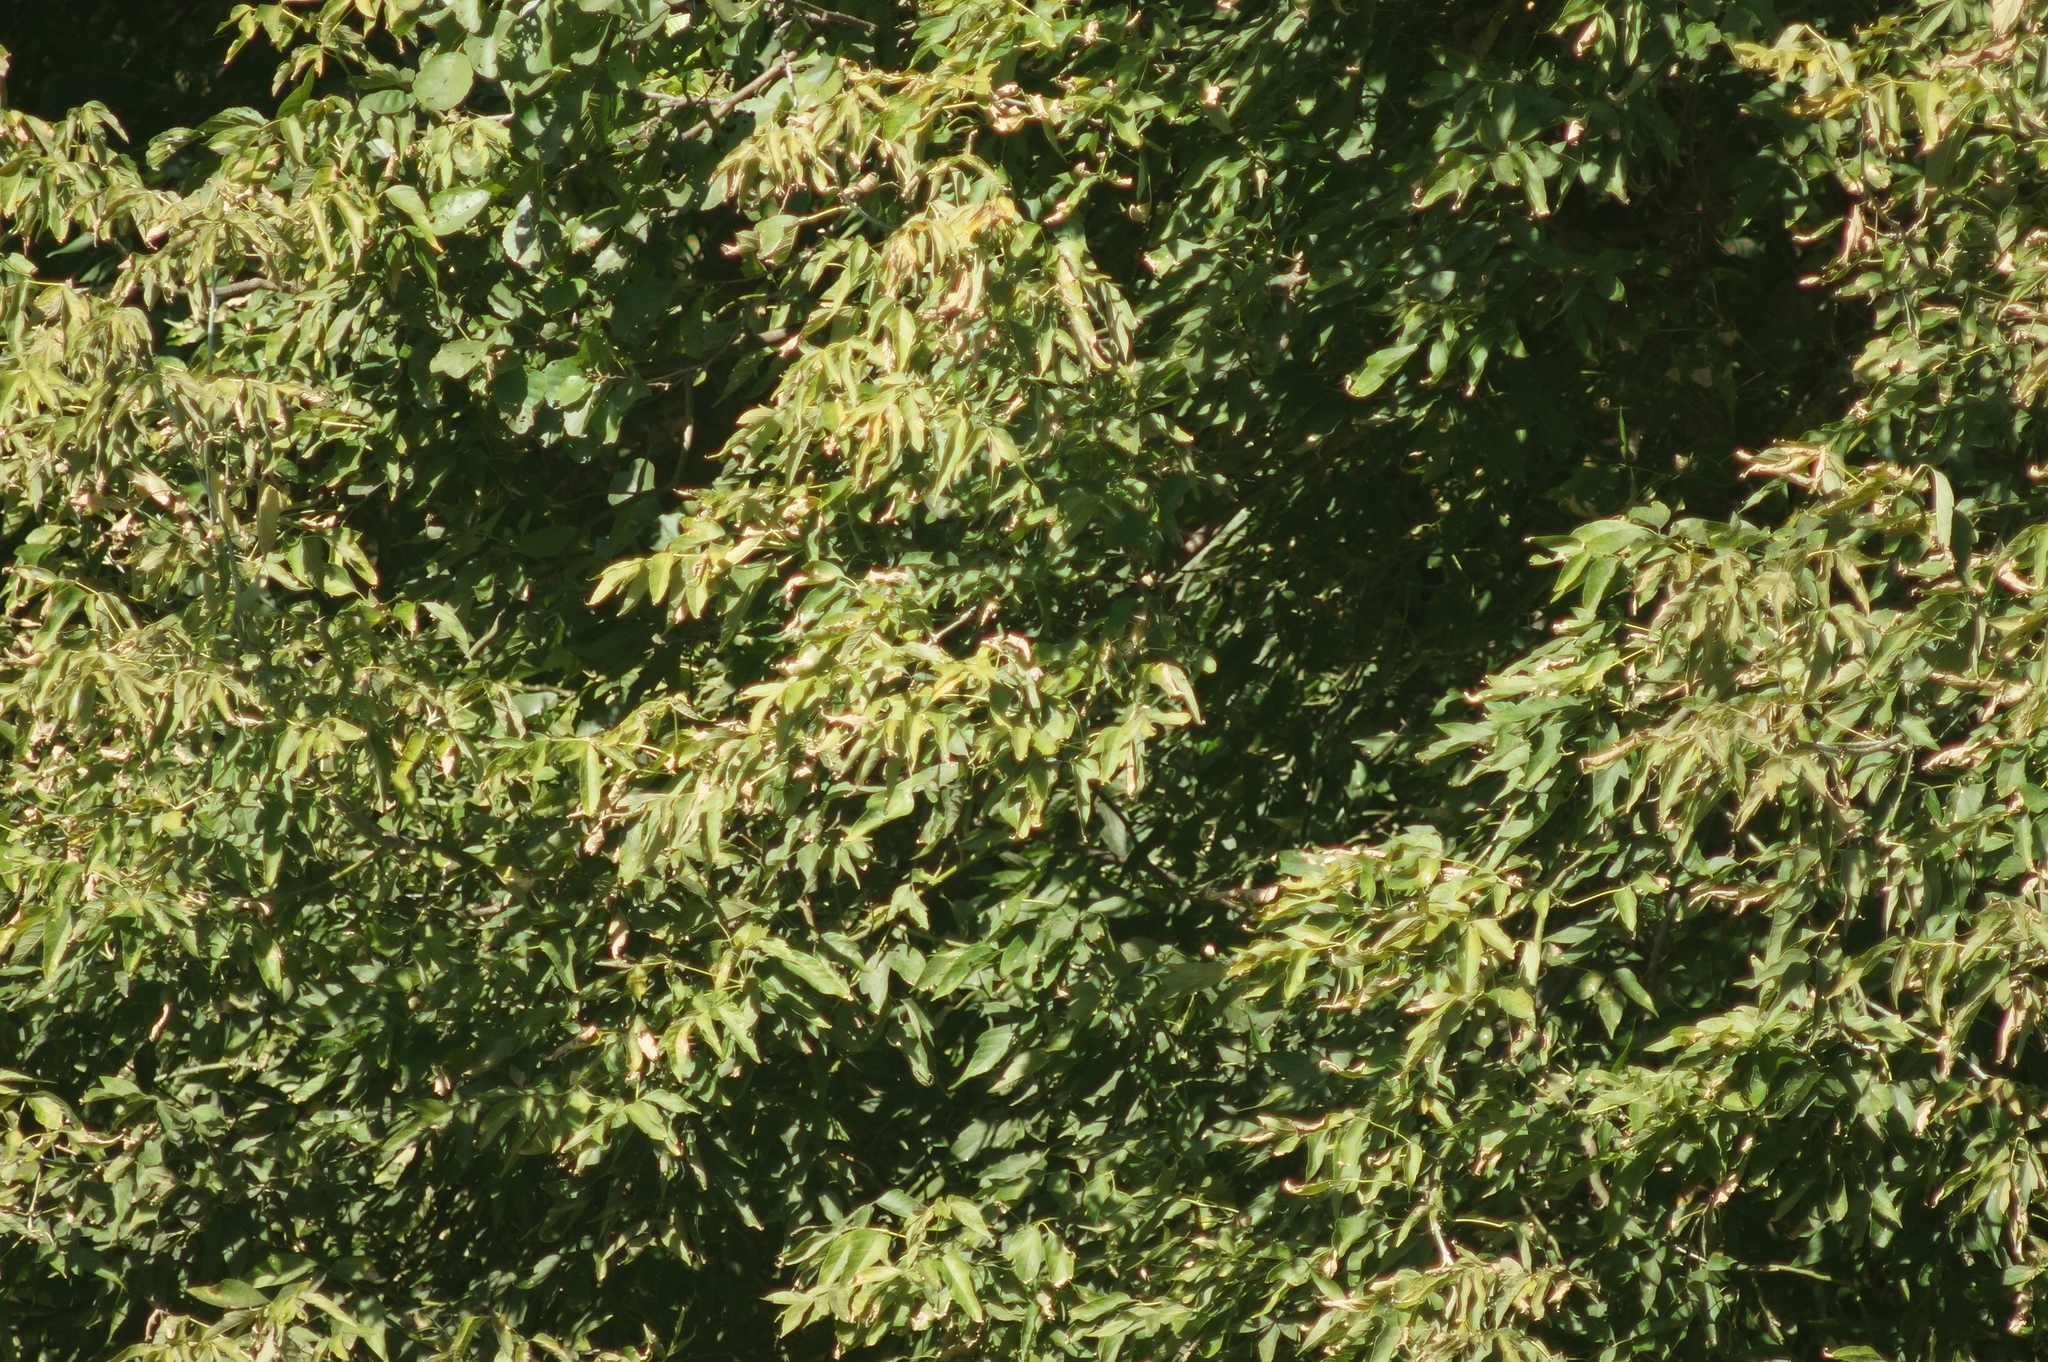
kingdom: Plantae
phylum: Tracheophyta
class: Magnoliopsida
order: Sapindales
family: Sapindaceae
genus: Acer
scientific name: Acer negundo
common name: Ashleaf maple
